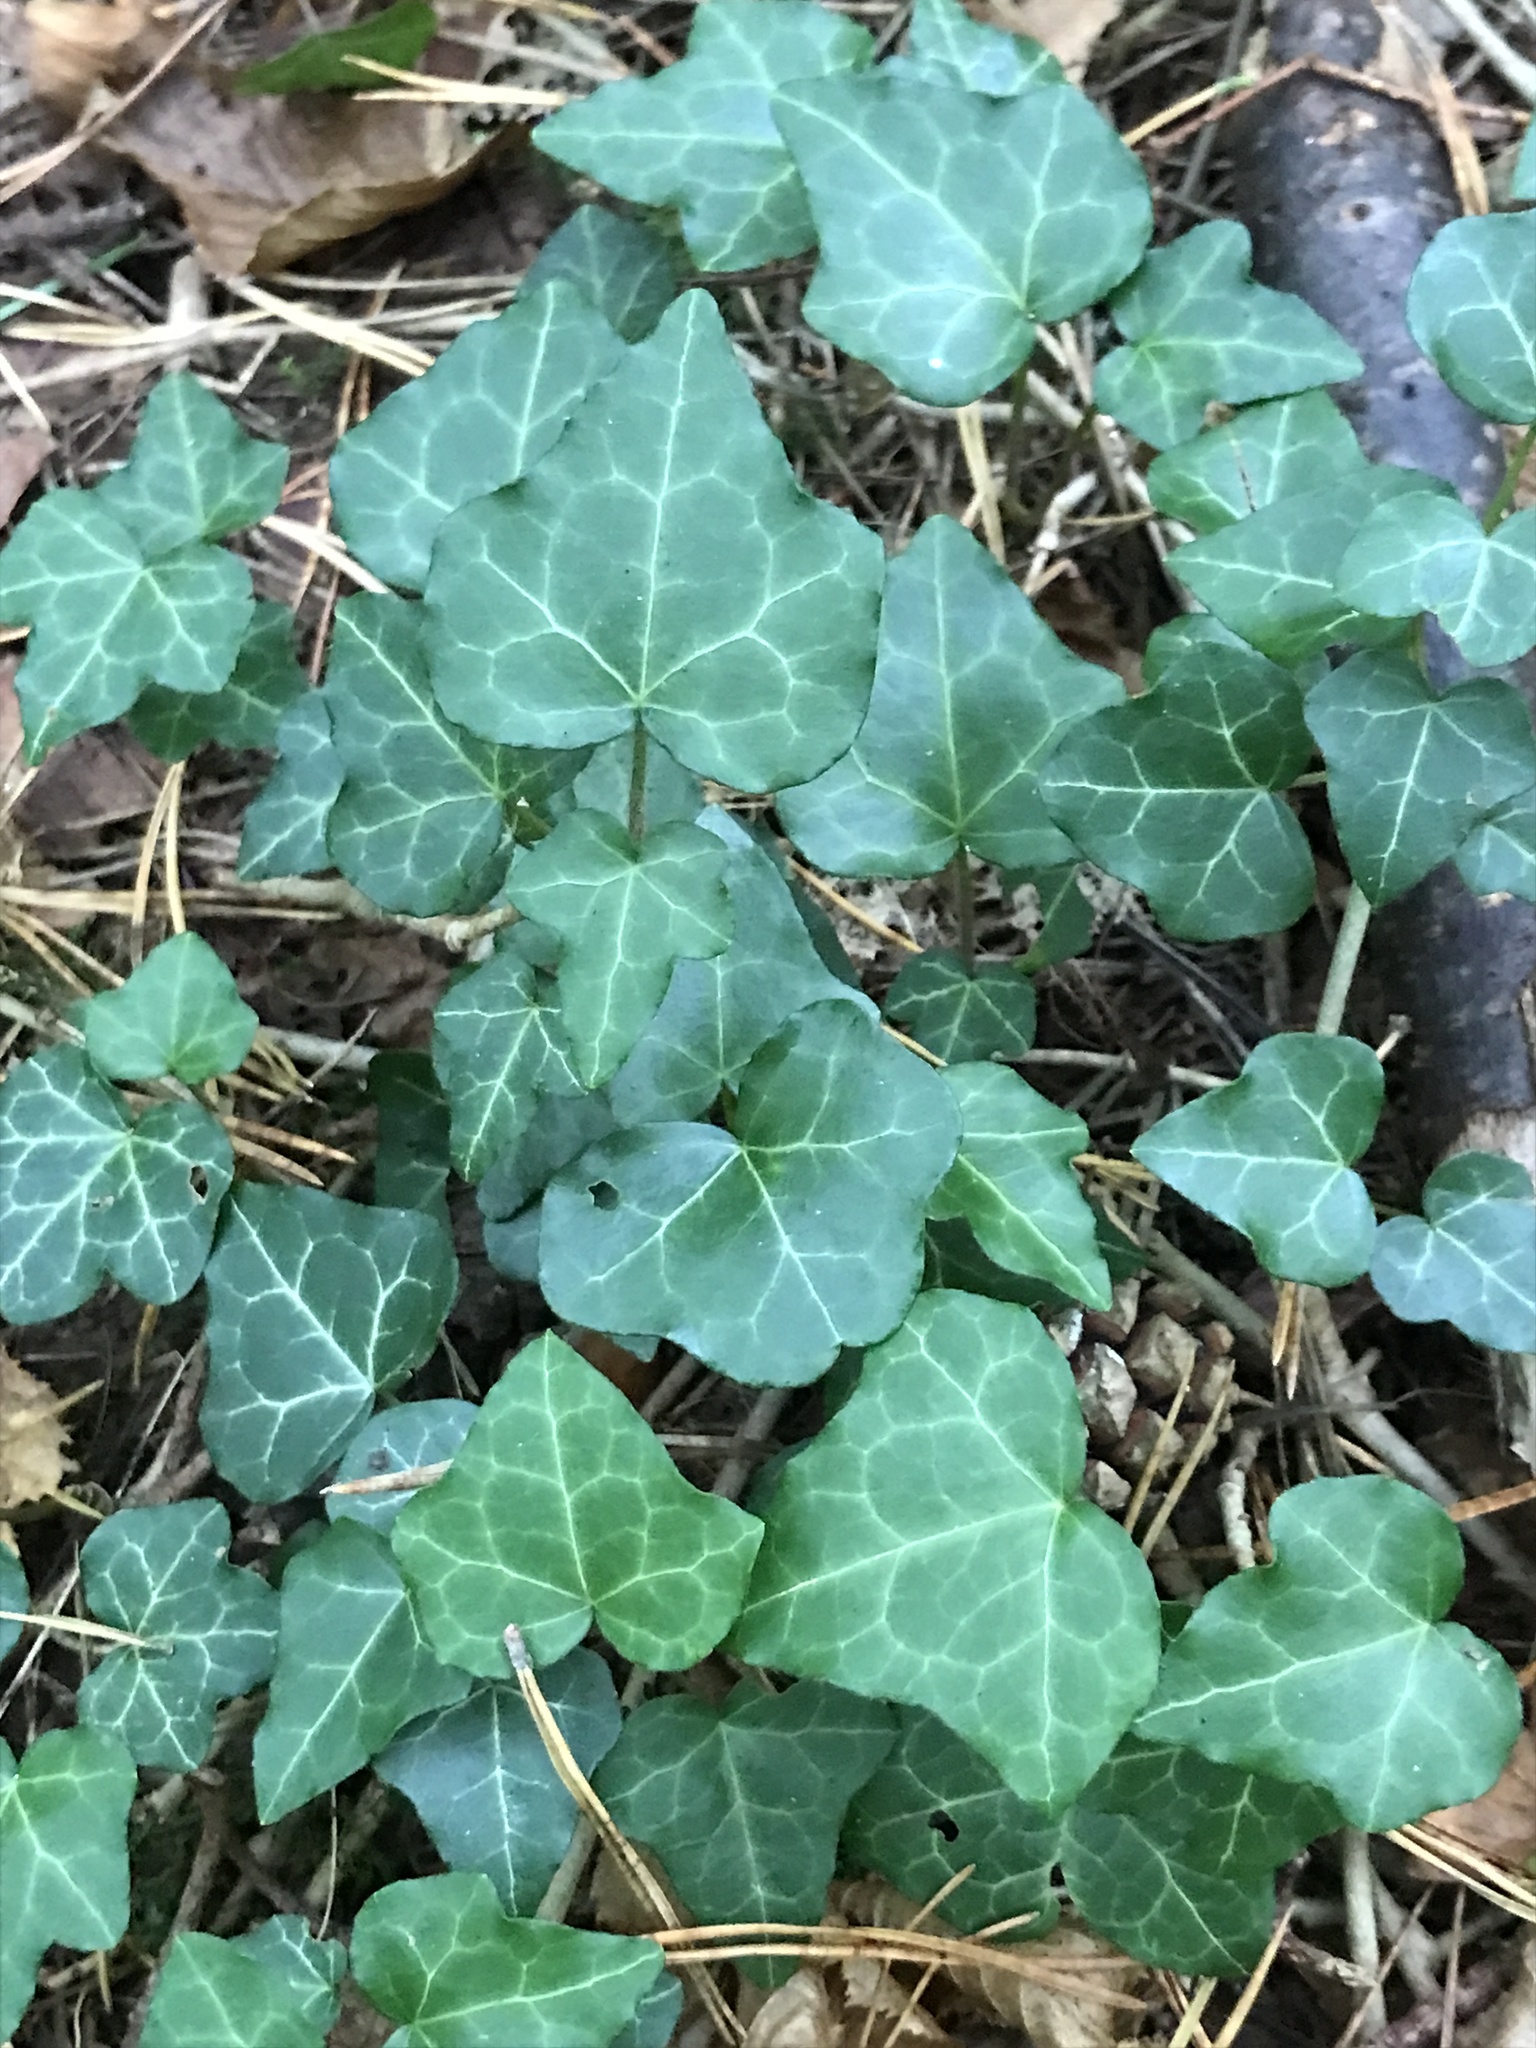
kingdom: Plantae
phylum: Tracheophyta
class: Magnoliopsida
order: Apiales
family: Araliaceae
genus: Hedera
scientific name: Hedera helix
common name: Ivy
